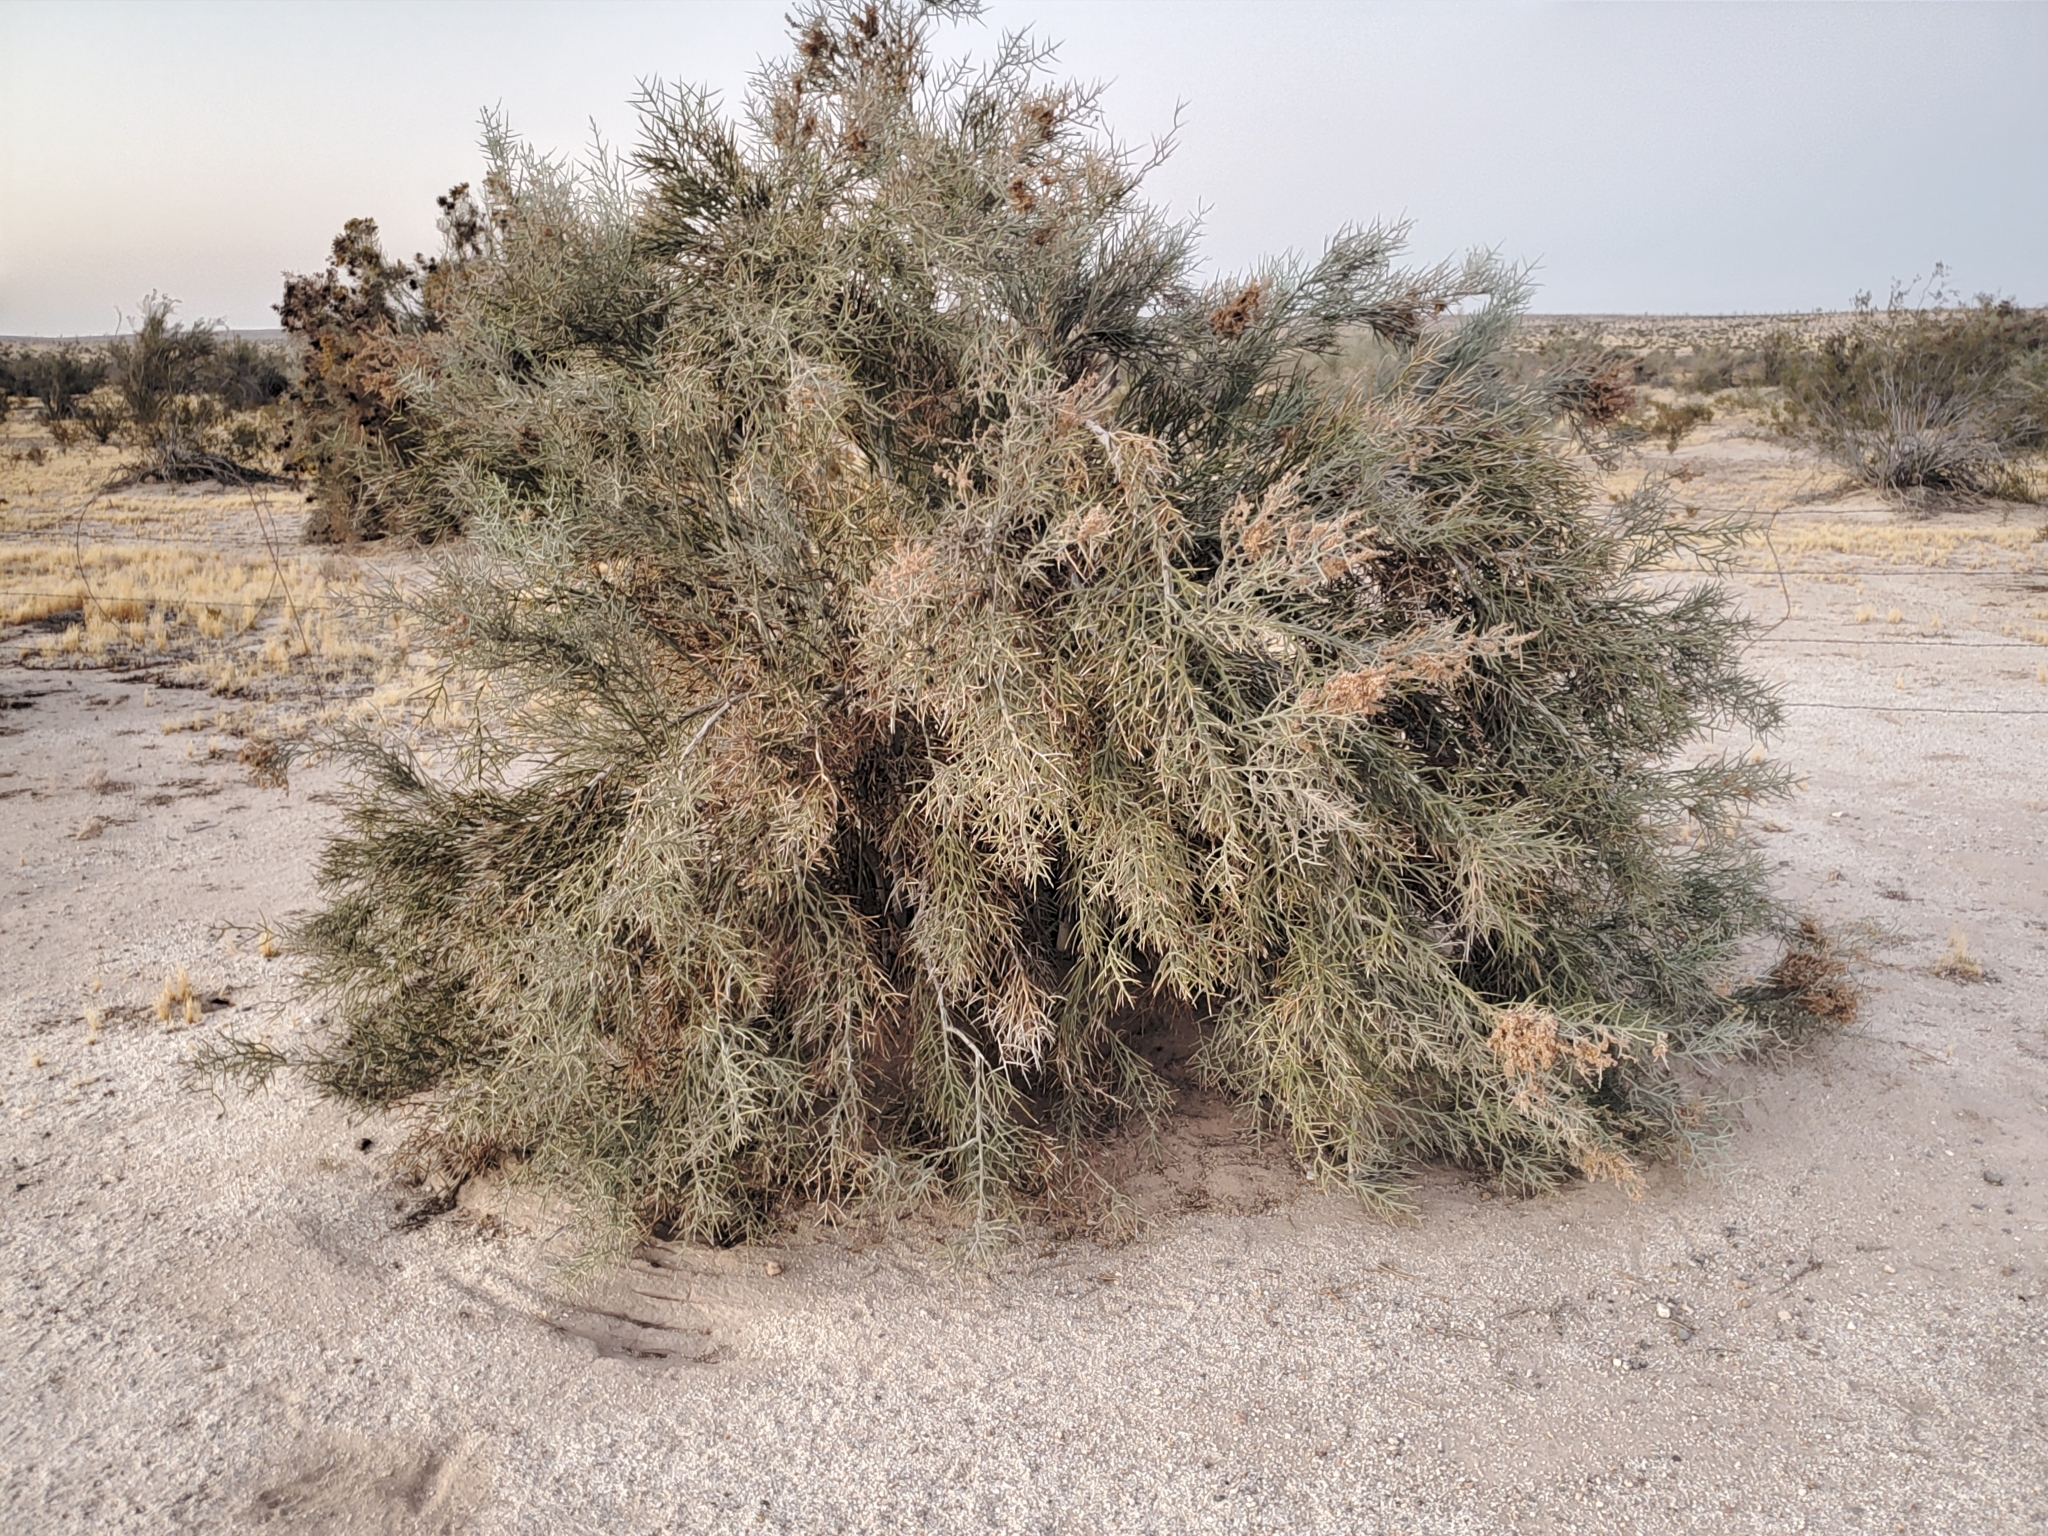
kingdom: Plantae
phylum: Tracheophyta
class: Magnoliopsida
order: Sapindales
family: Simaroubaceae
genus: Holacantha
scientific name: Holacantha emoryi
